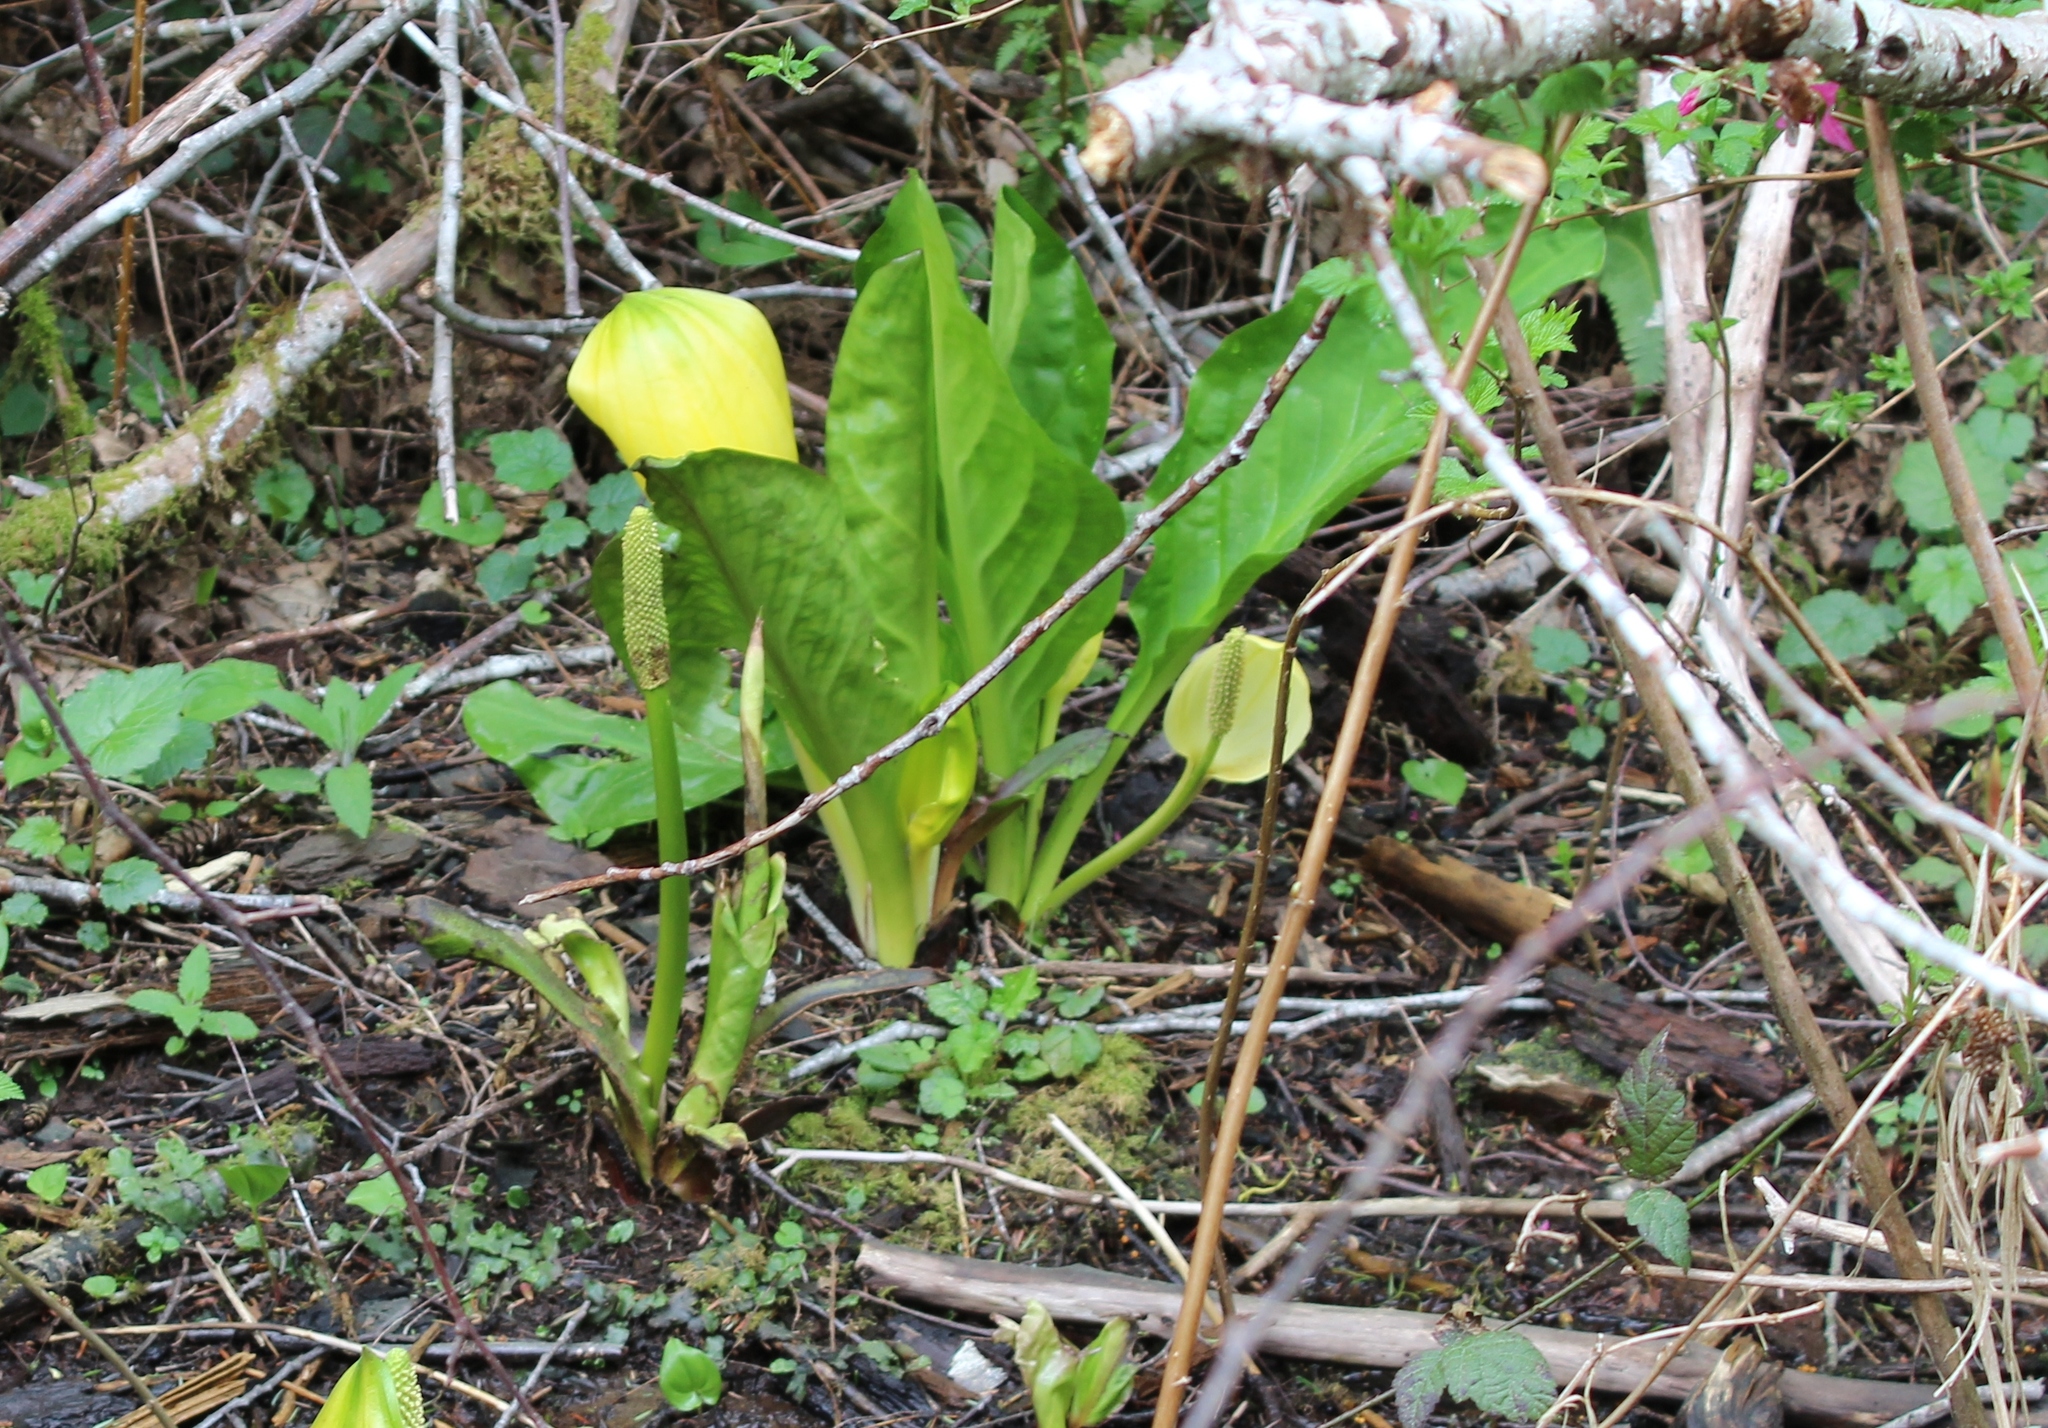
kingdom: Plantae
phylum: Tracheophyta
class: Liliopsida
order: Alismatales
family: Araceae
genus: Lysichiton
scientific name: Lysichiton americanus
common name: American skunk cabbage
